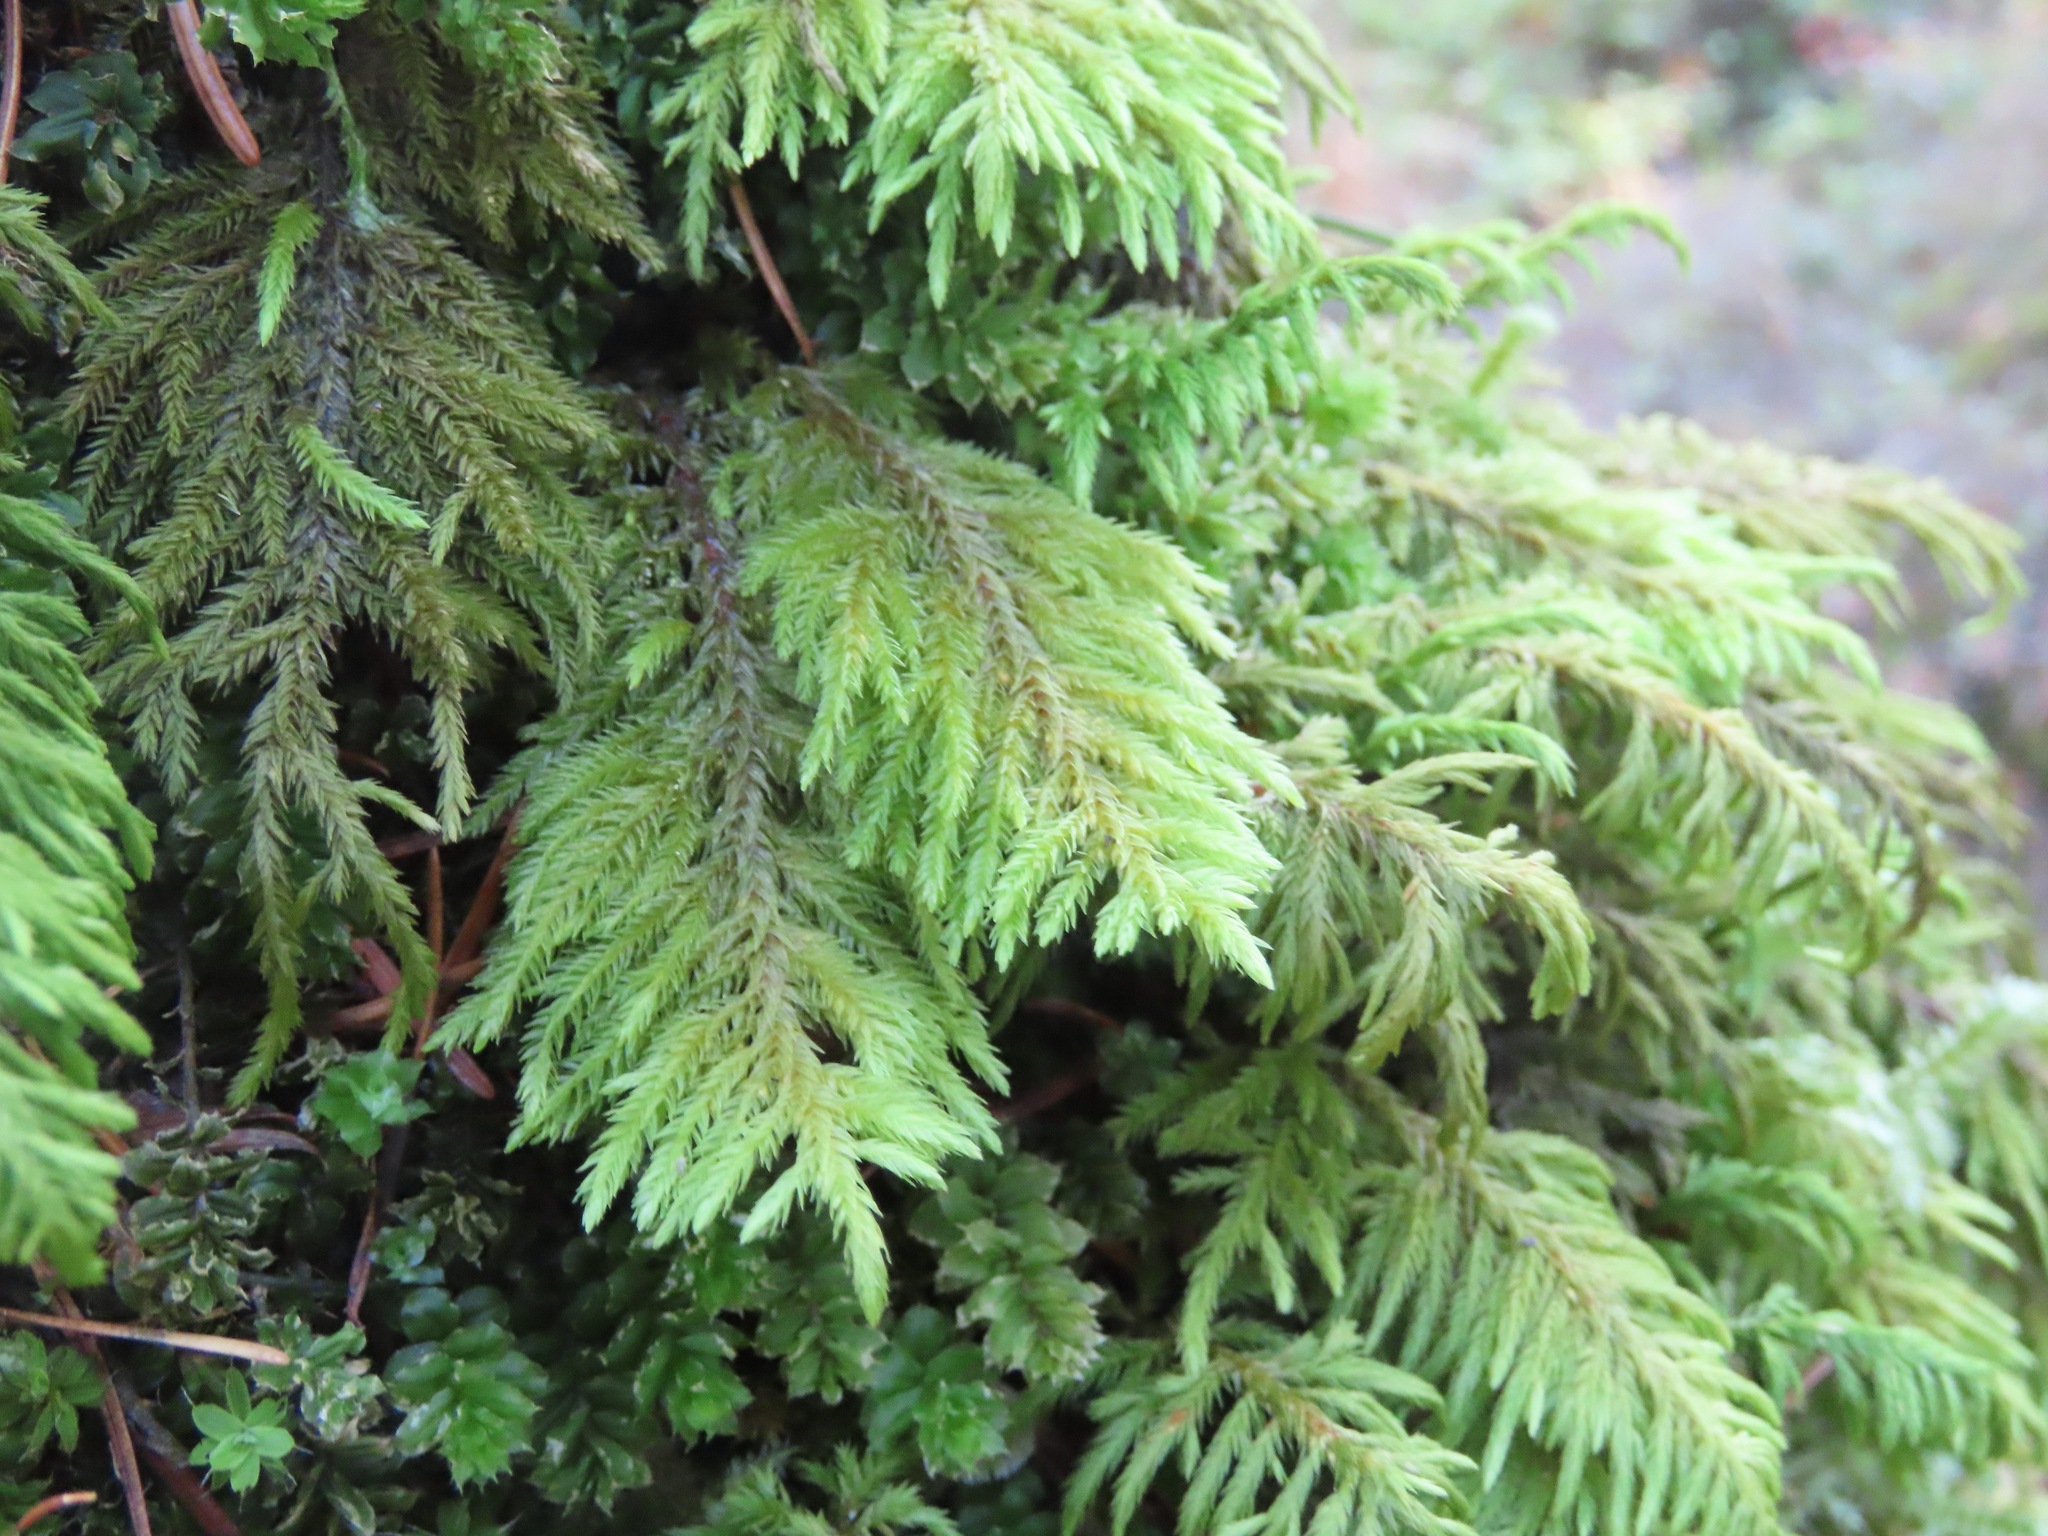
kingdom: Plantae
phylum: Bryophyta
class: Bryopsida
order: Hypnales
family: Cryphaeaceae
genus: Dendroalsia
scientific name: Dendroalsia abietina
